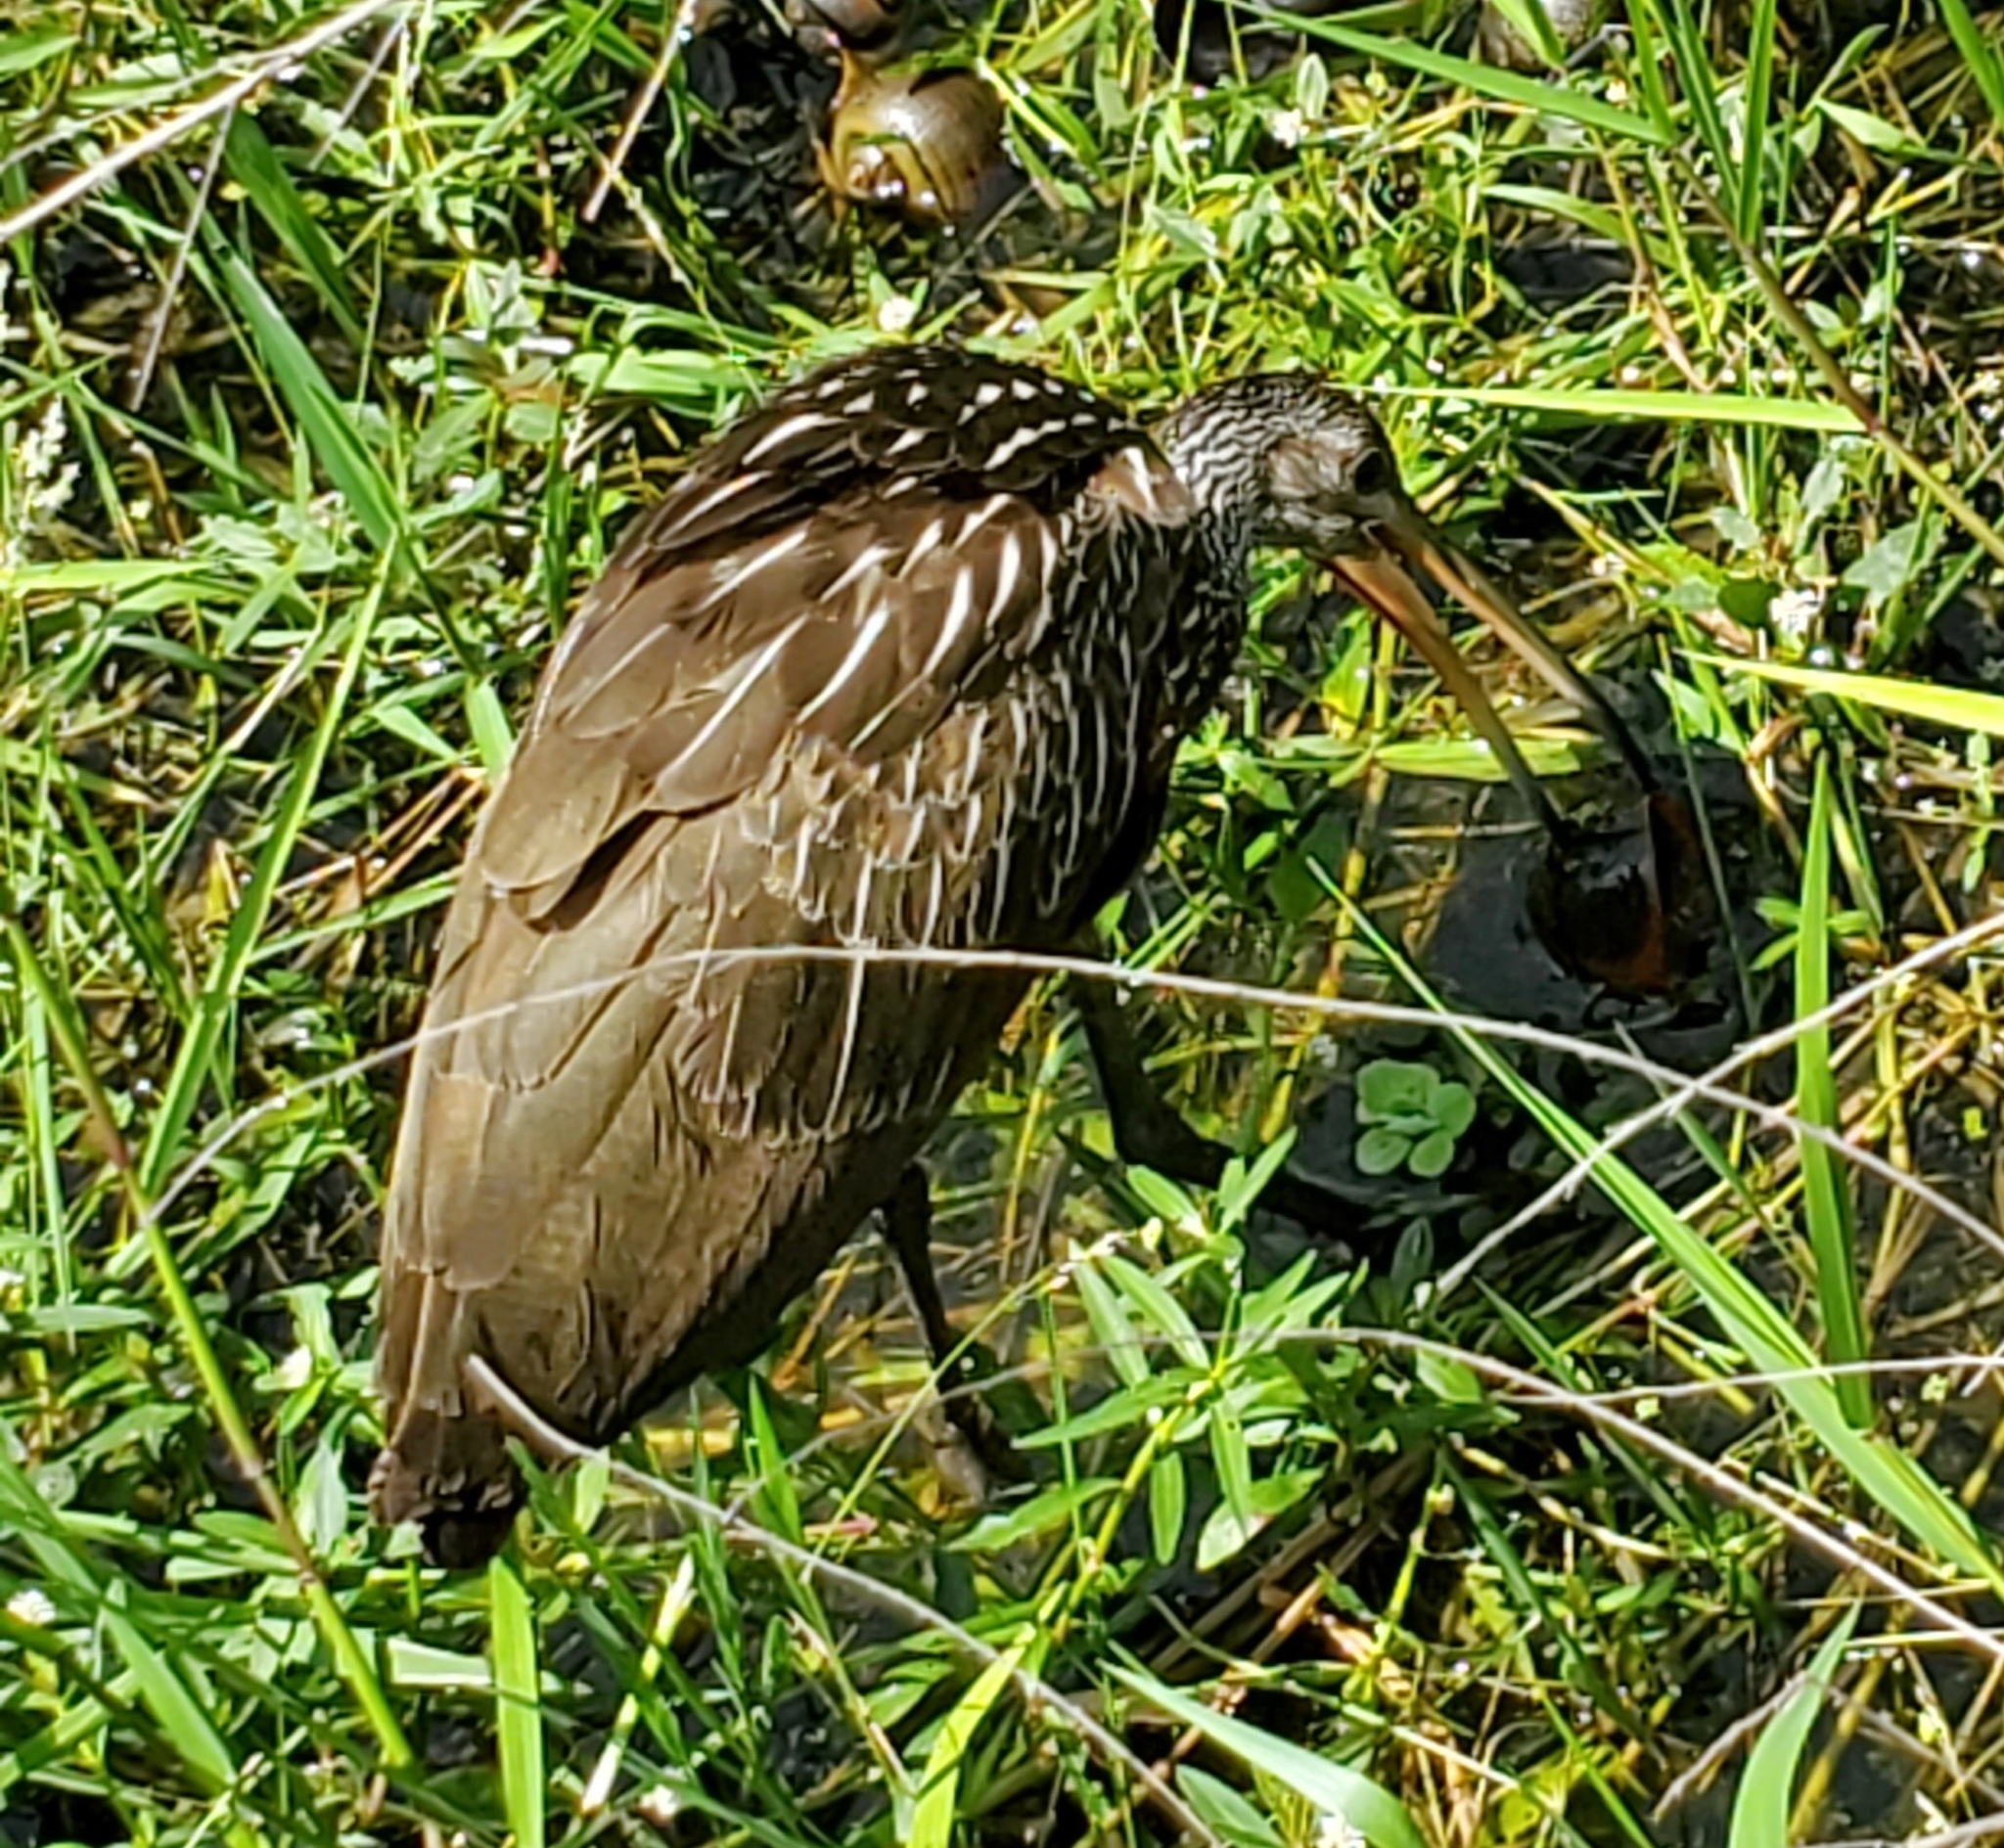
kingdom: Animalia
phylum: Chordata
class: Aves
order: Gruiformes
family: Aramidae
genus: Aramus
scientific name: Aramus guarauna
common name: Limpkin
